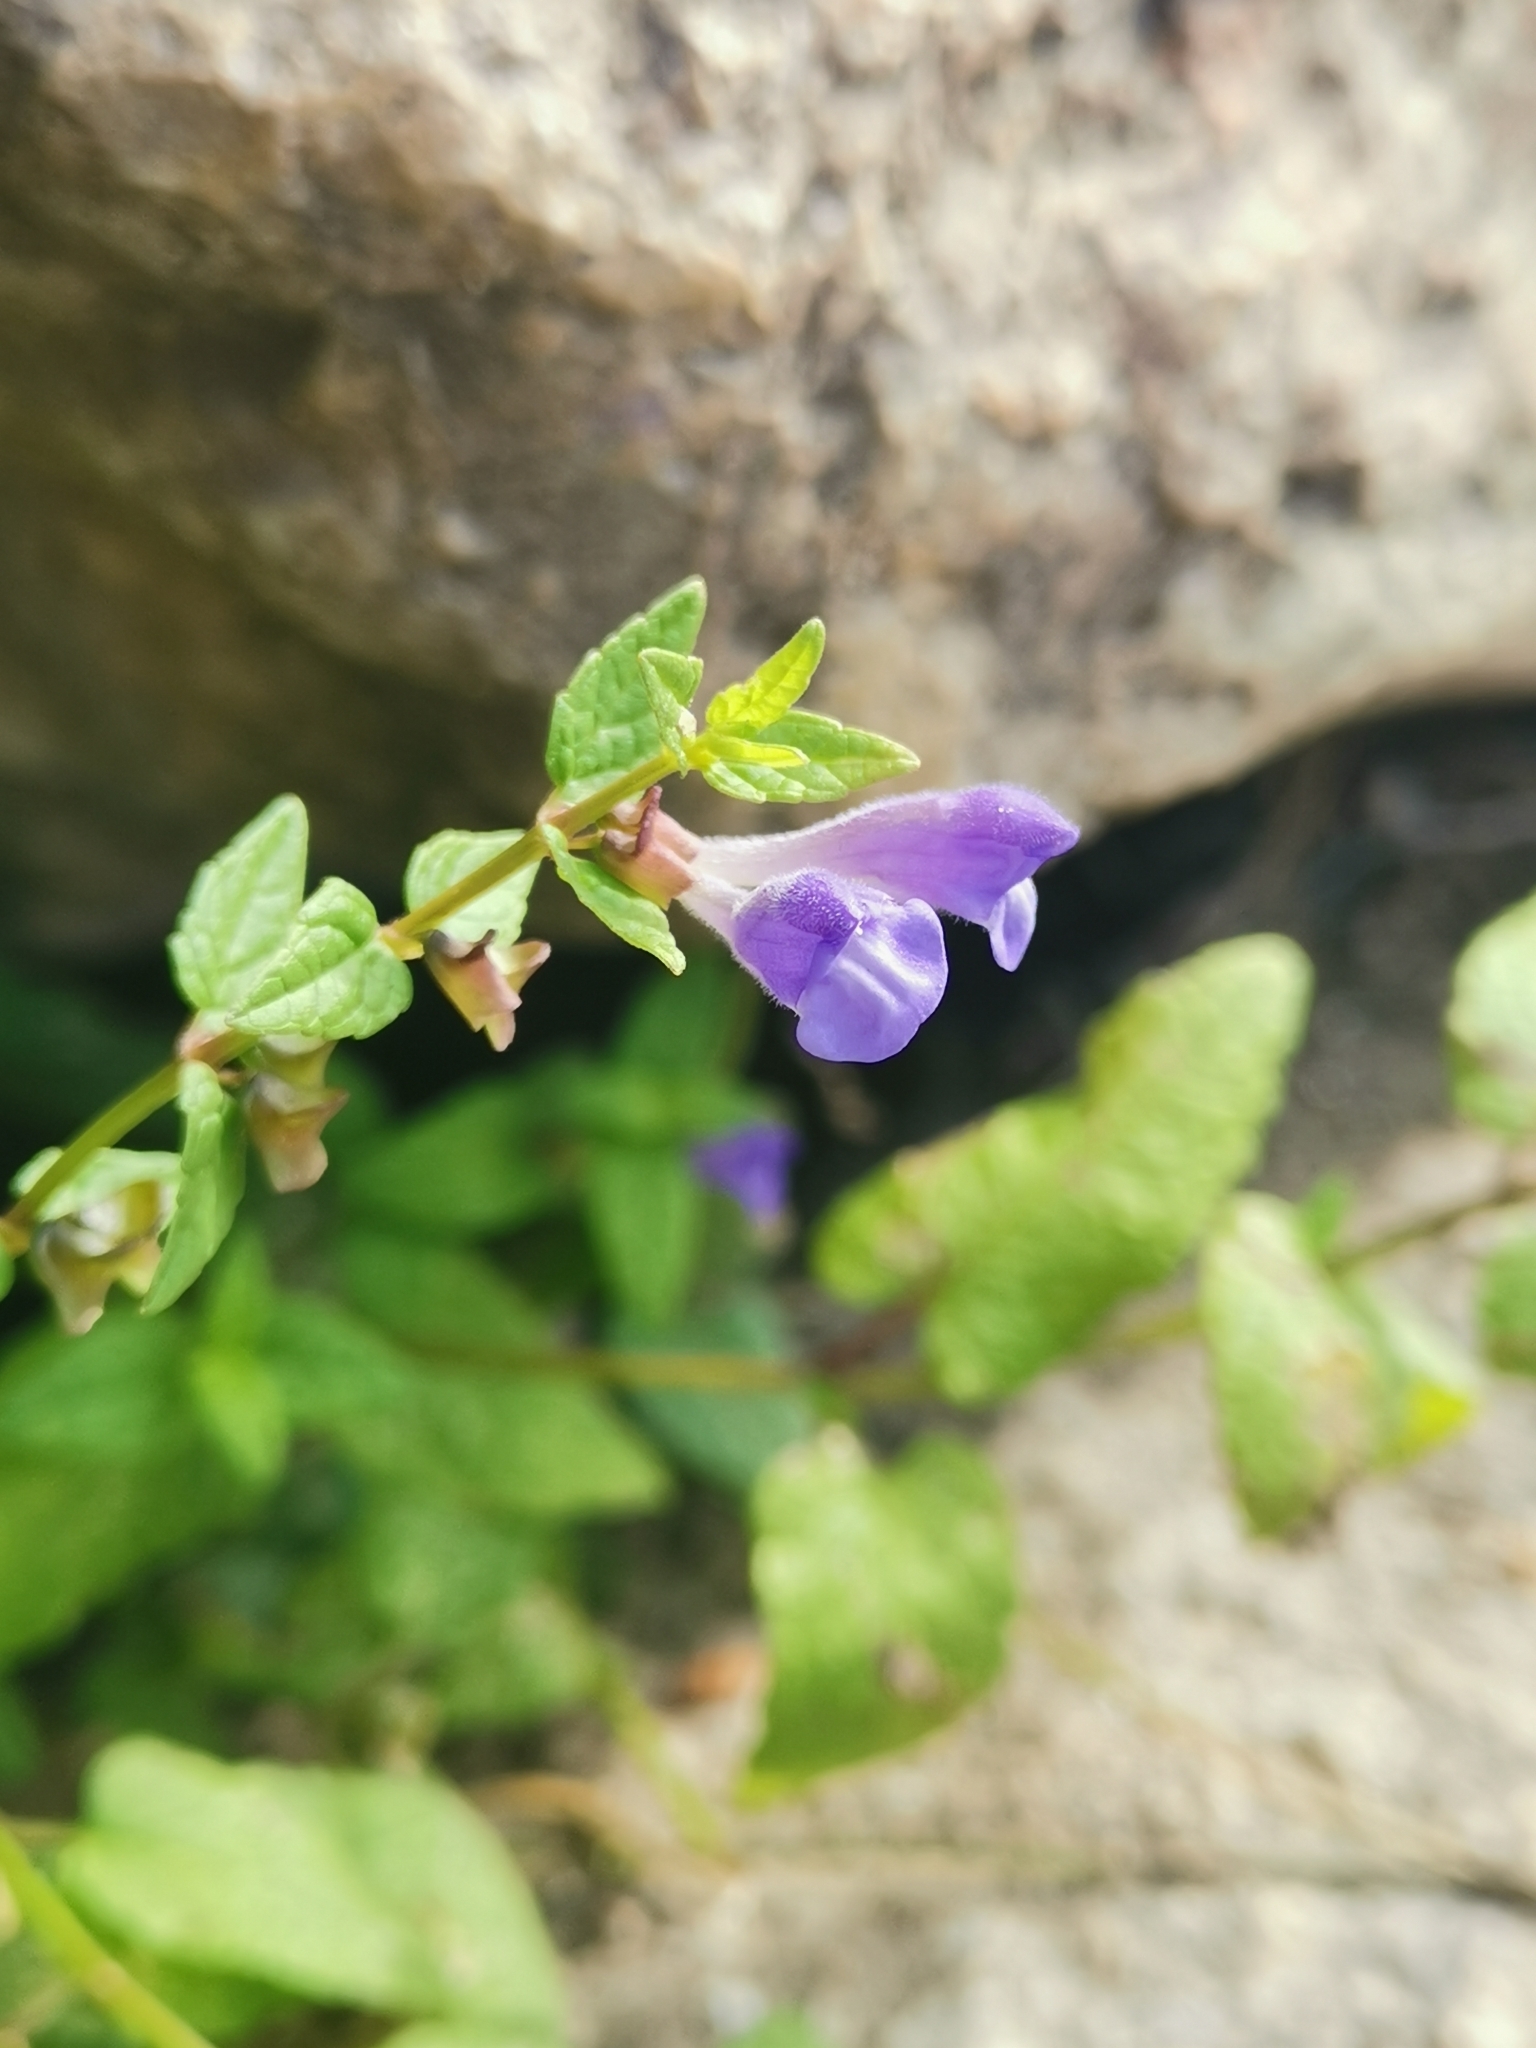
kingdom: Plantae
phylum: Tracheophyta
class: Magnoliopsida
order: Lamiales
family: Lamiaceae
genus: Scutellaria
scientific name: Scutellaria galericulata
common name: Skullcap
